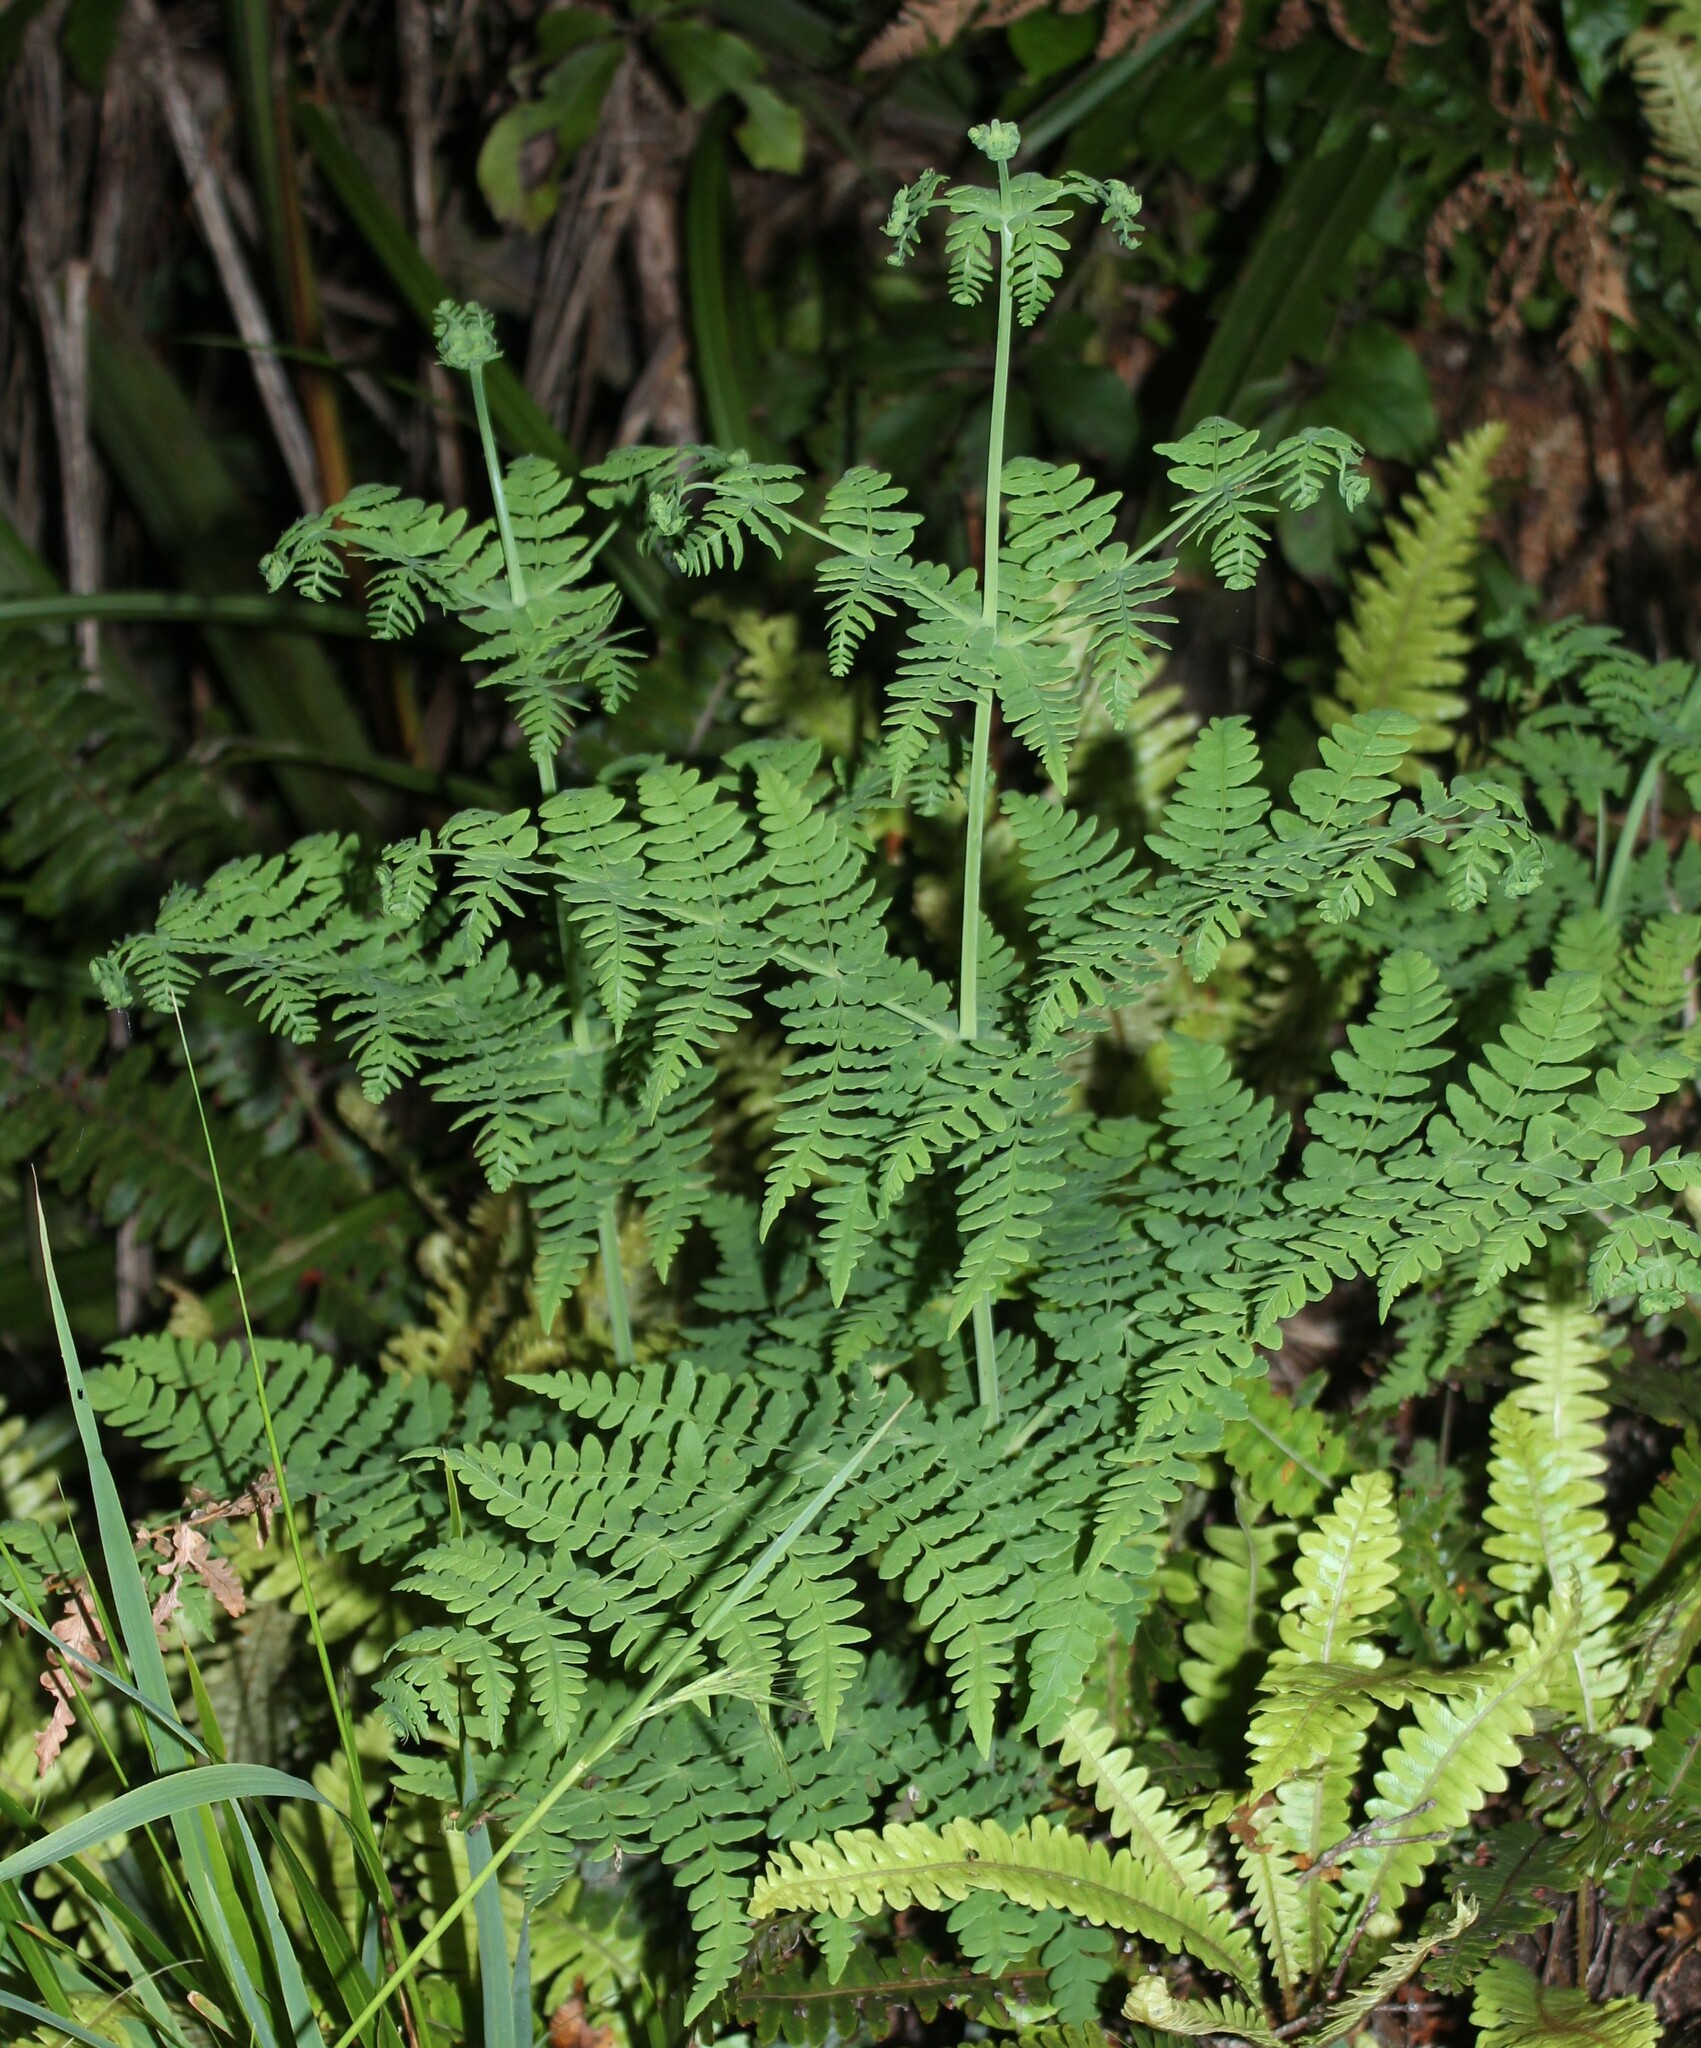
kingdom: Plantae
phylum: Tracheophyta
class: Polypodiopsida
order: Polypodiales
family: Dennstaedtiaceae
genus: Histiopteris
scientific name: Histiopteris incisa
